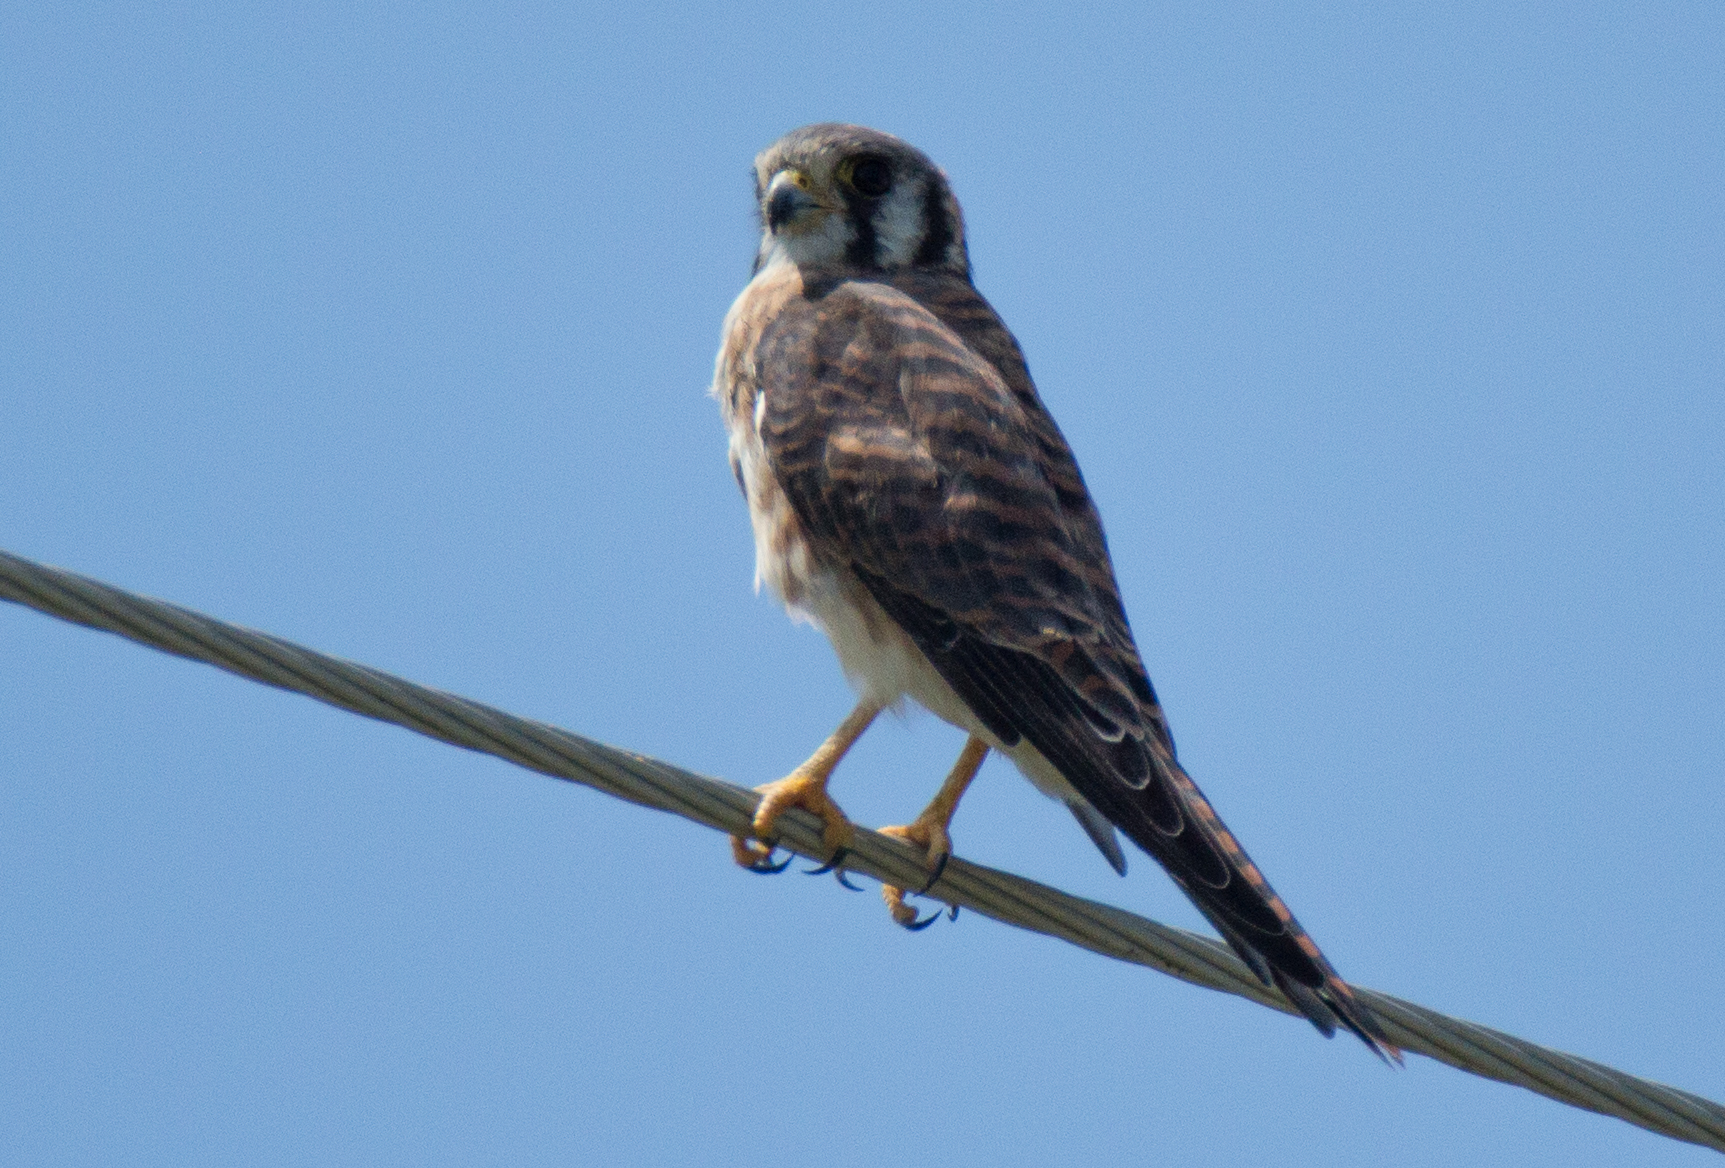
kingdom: Animalia
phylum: Chordata
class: Aves
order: Falconiformes
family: Falconidae
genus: Falco
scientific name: Falco sparverius
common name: American kestrel
